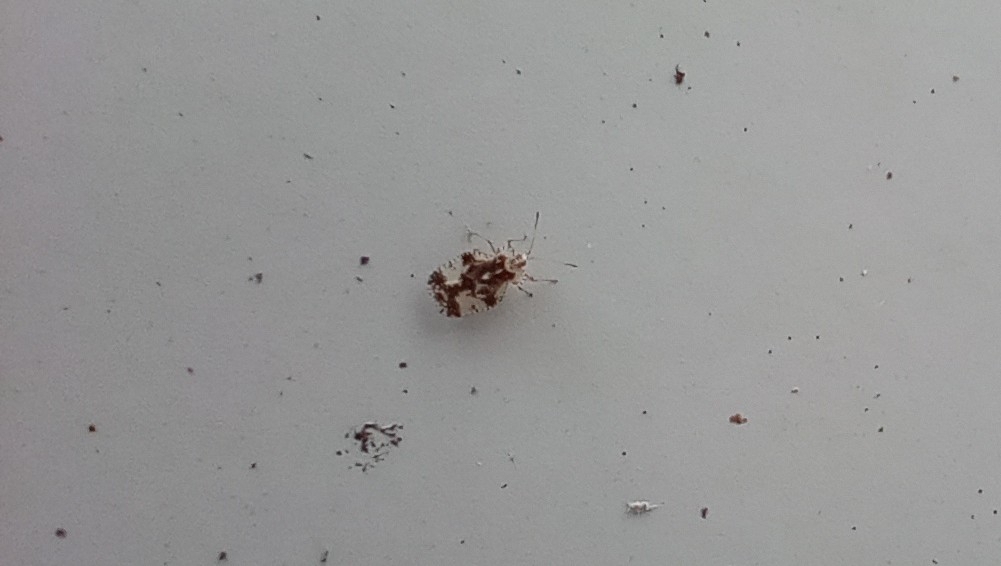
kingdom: Animalia
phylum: Arthropoda
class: Insecta
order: Hemiptera
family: Tingidae
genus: Stephanitis
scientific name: Stephanitis pyri
